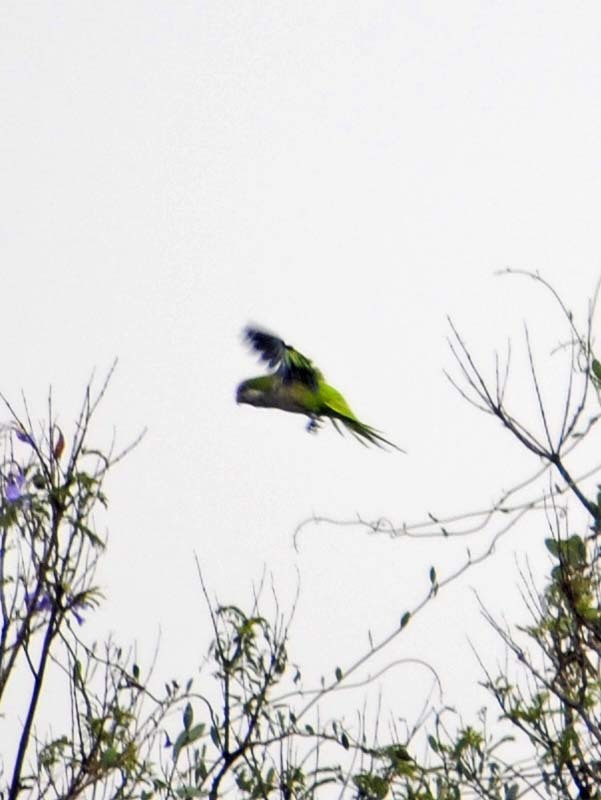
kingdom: Animalia
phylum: Chordata
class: Aves
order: Psittaciformes
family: Psittacidae
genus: Myiopsitta
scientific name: Myiopsitta monachus
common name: Monk parakeet
